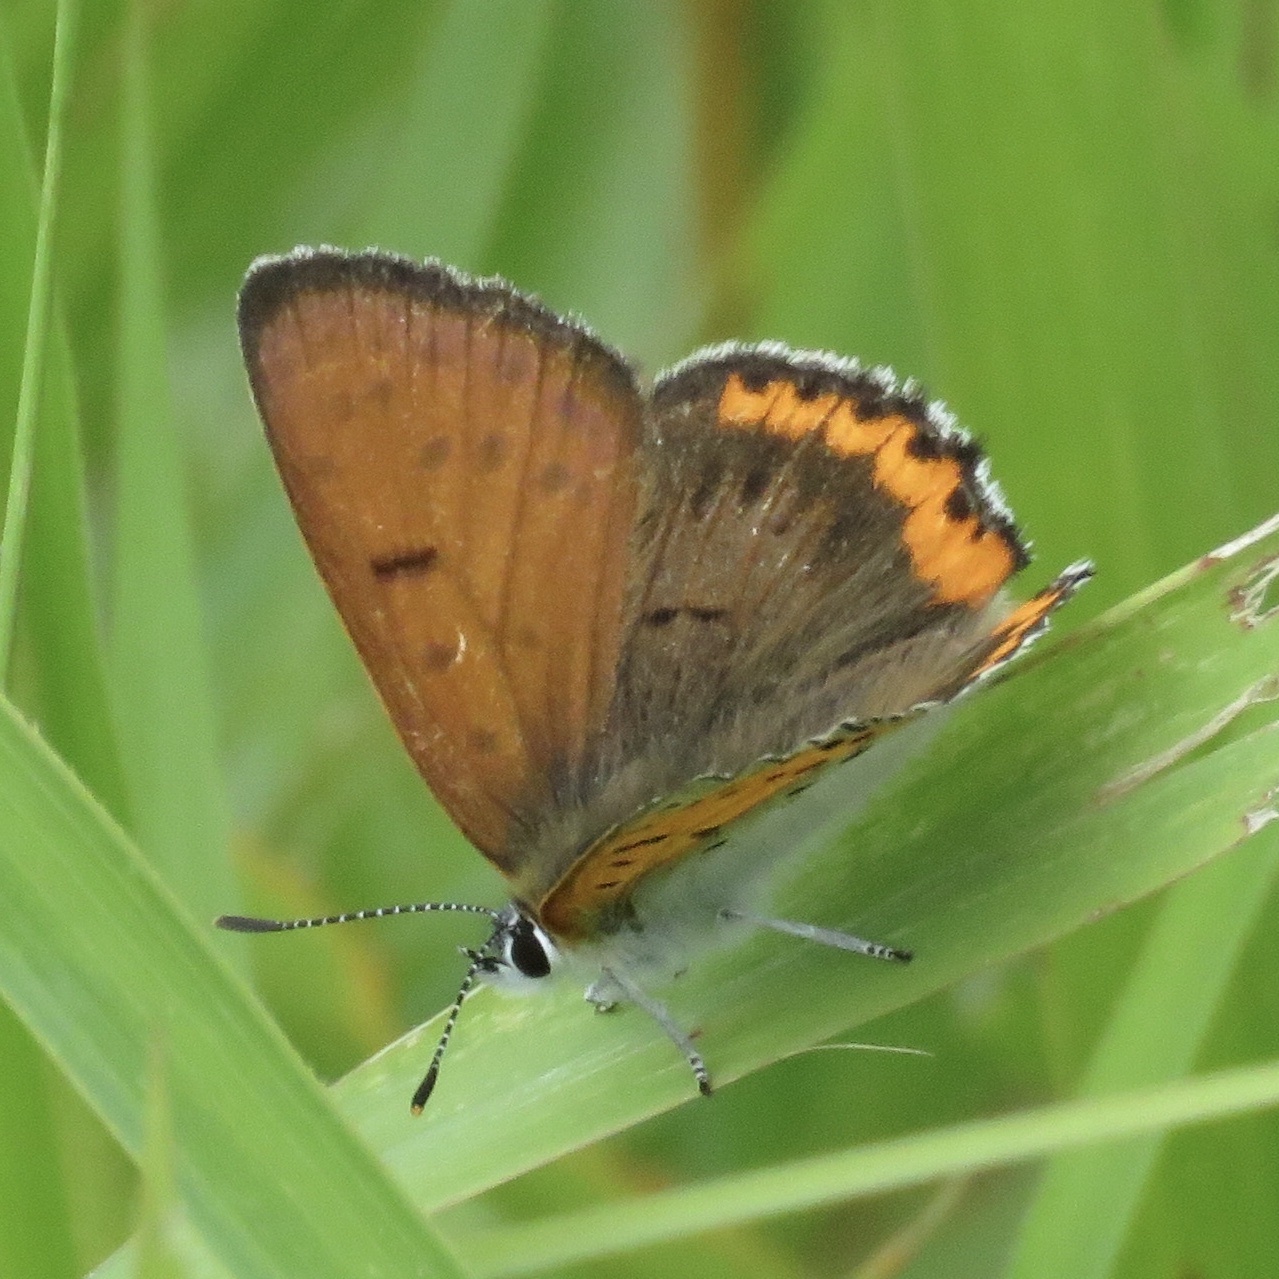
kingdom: Animalia
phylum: Arthropoda
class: Insecta
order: Lepidoptera
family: Lycaenidae
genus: Tharsalea
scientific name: Tharsalea hyllus
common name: Bronze copper
